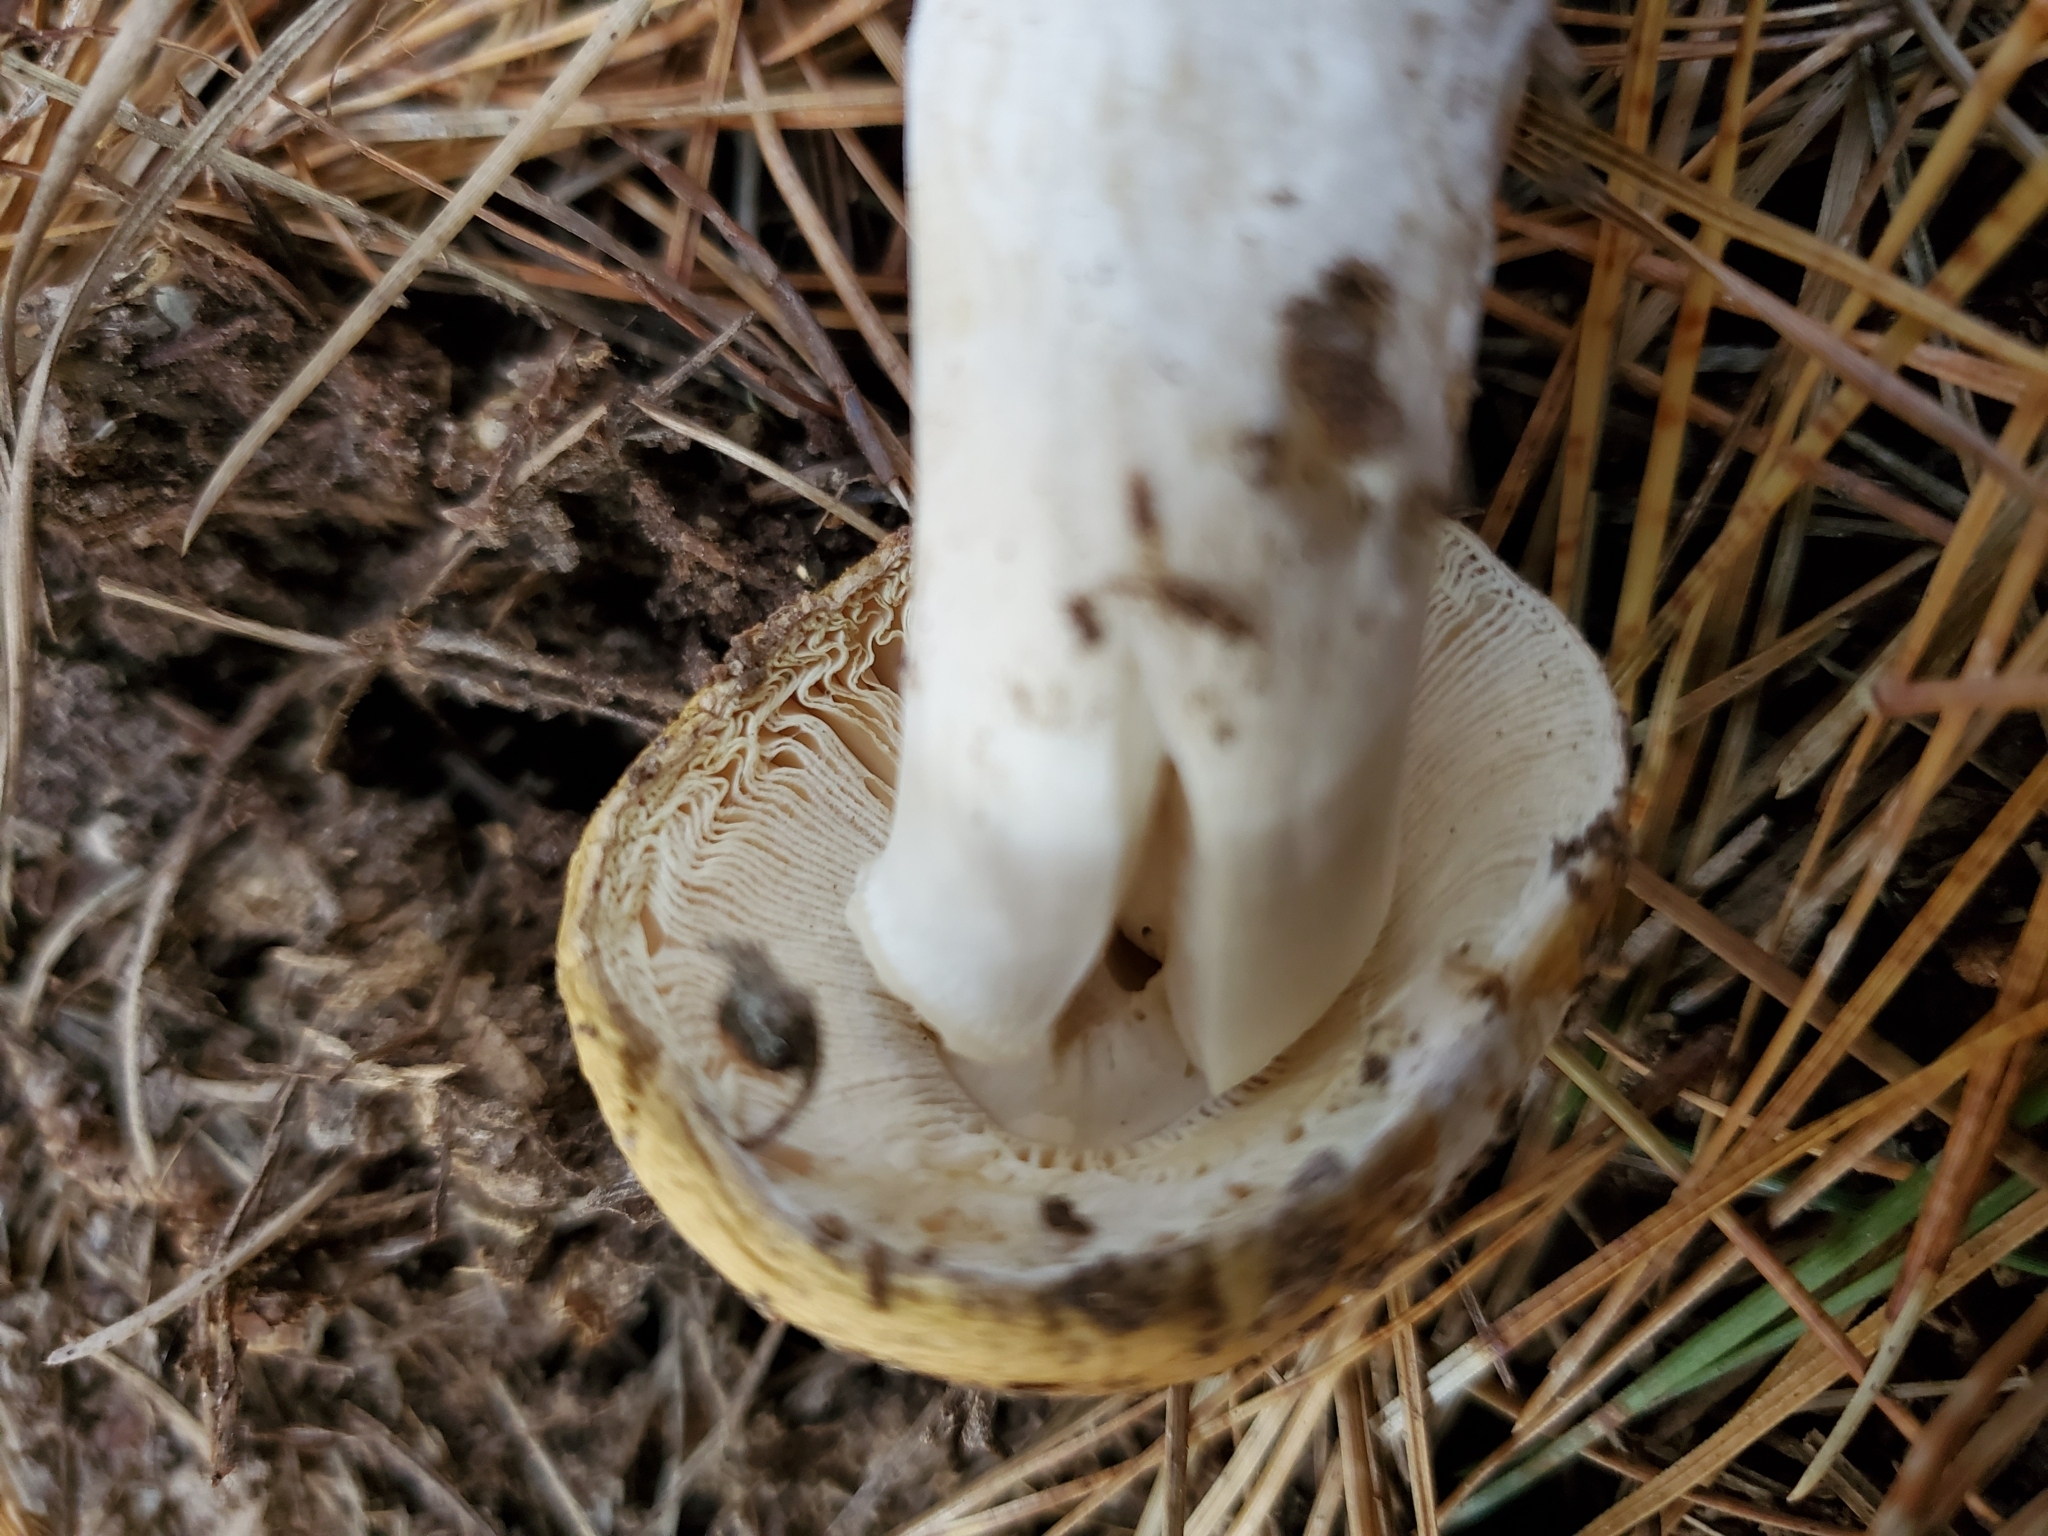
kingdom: Fungi
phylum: Basidiomycota
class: Agaricomycetes
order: Agaricales
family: Amanitaceae
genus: Amanita
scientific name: Amanita gemmata
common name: Jewelled amanita
